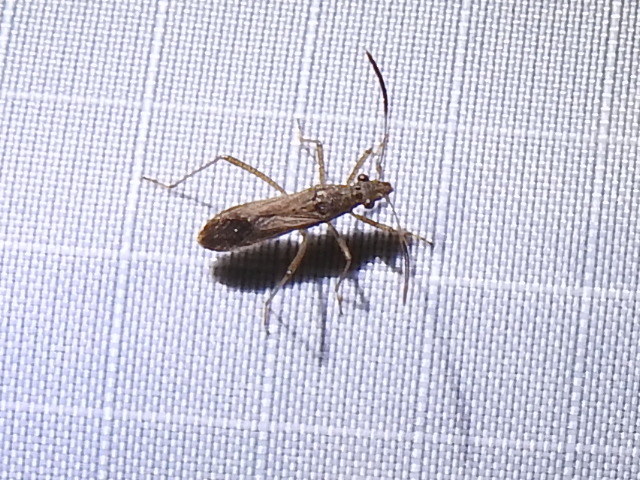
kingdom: Animalia
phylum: Arthropoda
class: Insecta
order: Hemiptera
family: Alydidae
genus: Esperanza
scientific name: Esperanza texana
